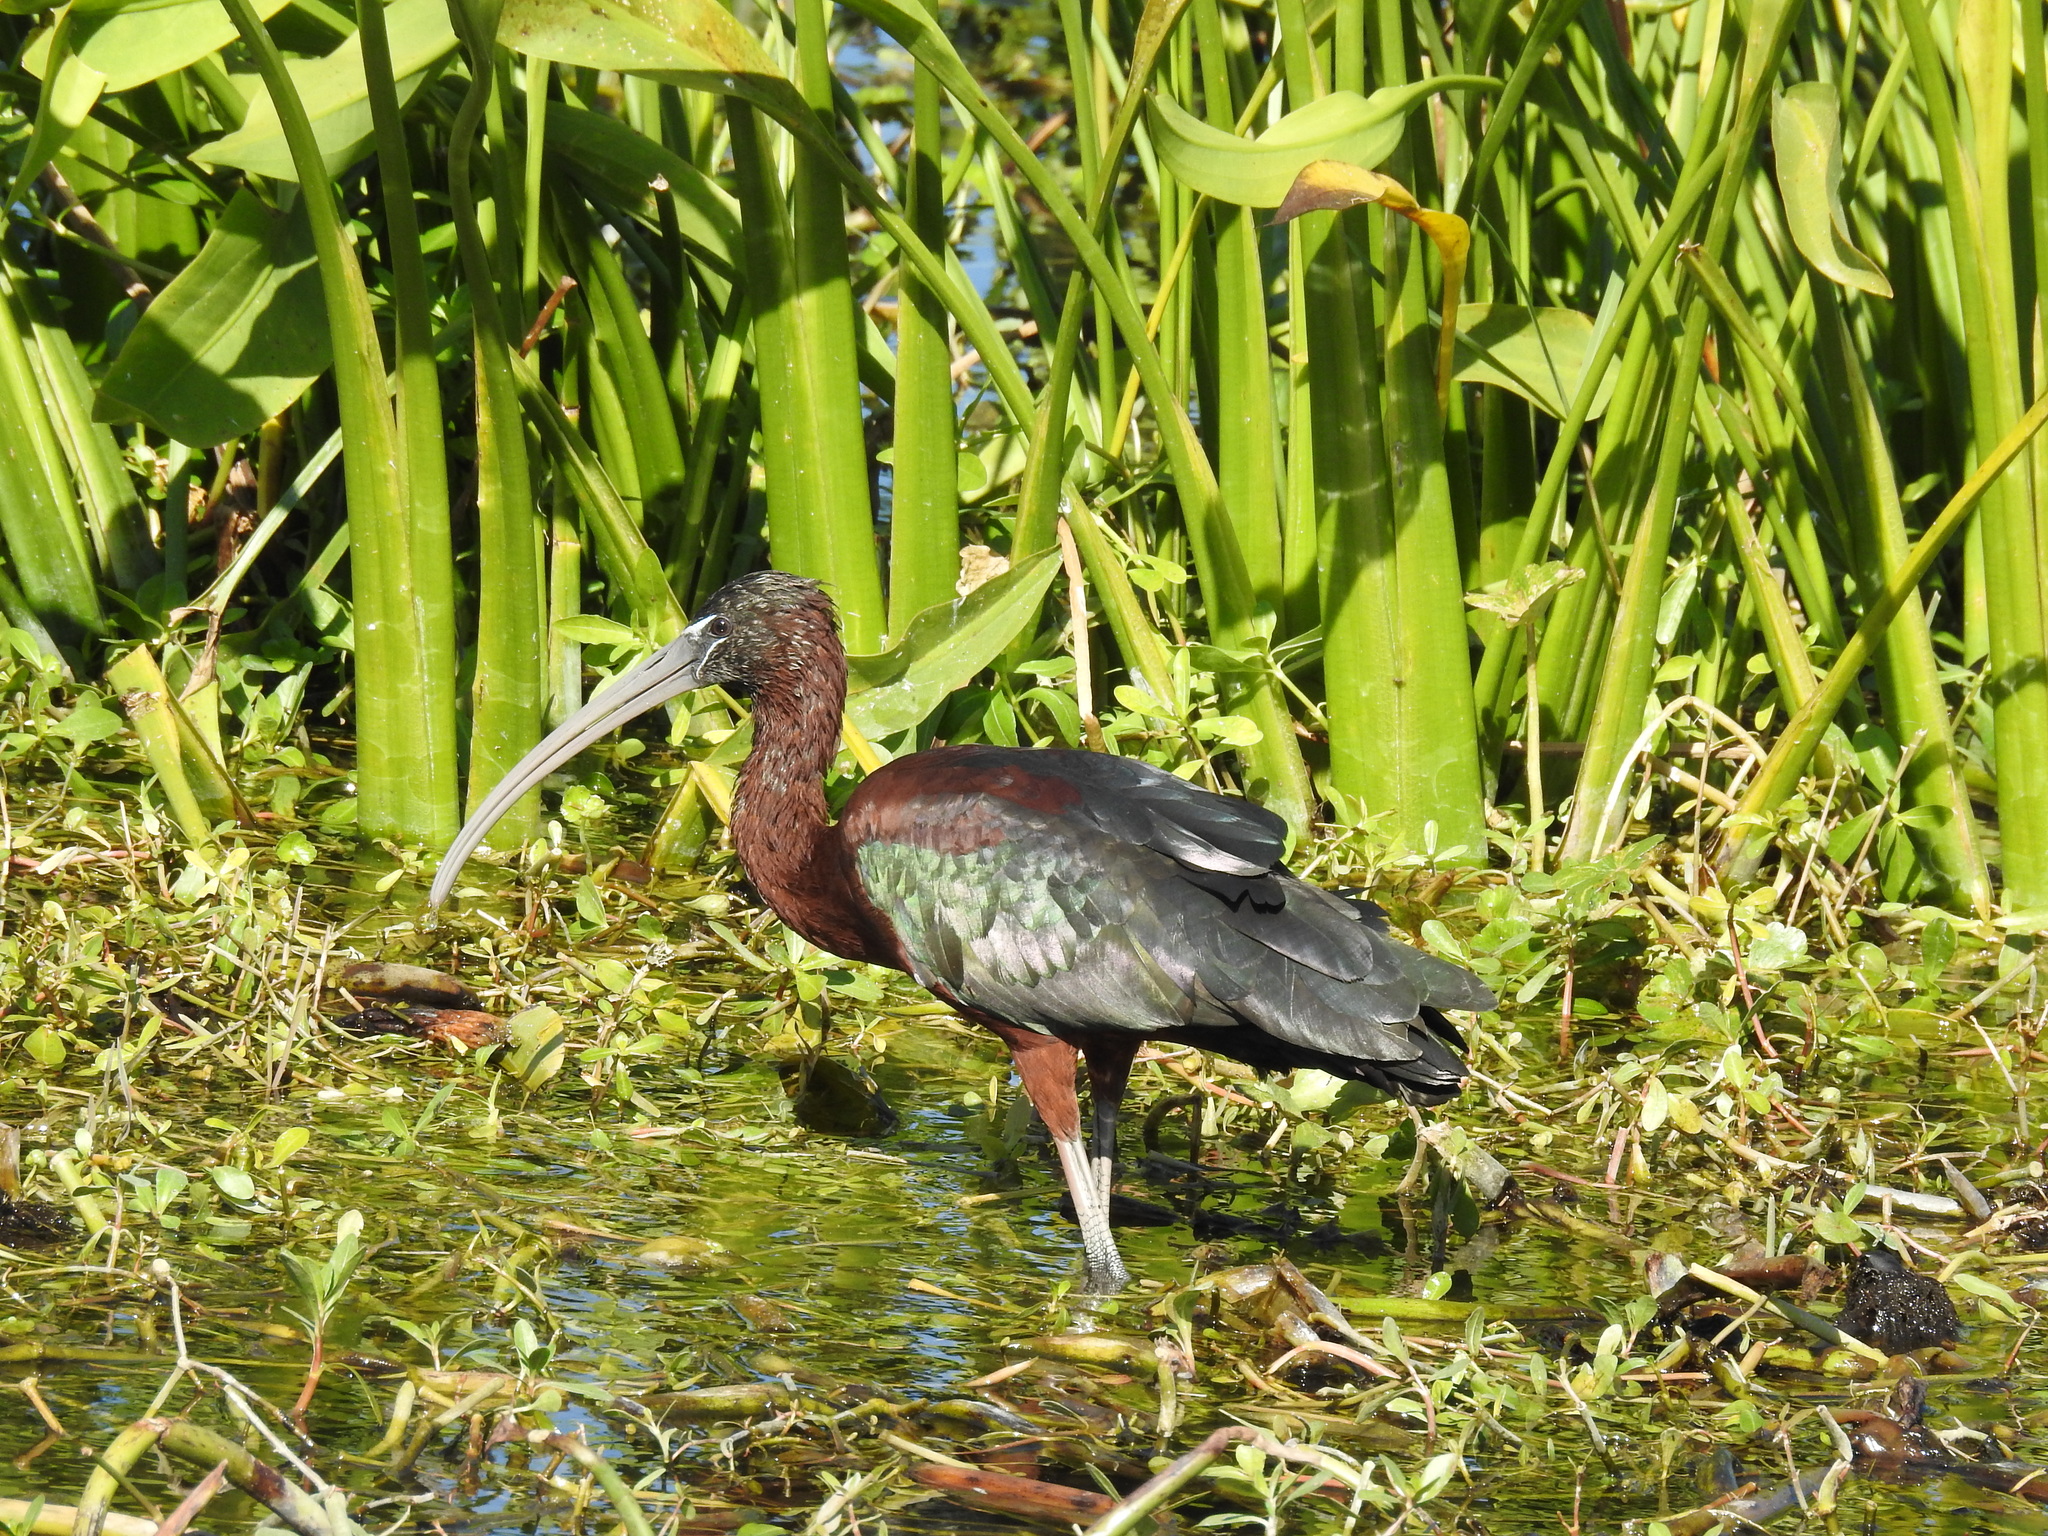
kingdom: Animalia
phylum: Chordata
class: Aves
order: Pelecaniformes
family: Threskiornithidae
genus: Plegadis
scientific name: Plegadis falcinellus
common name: Glossy ibis
